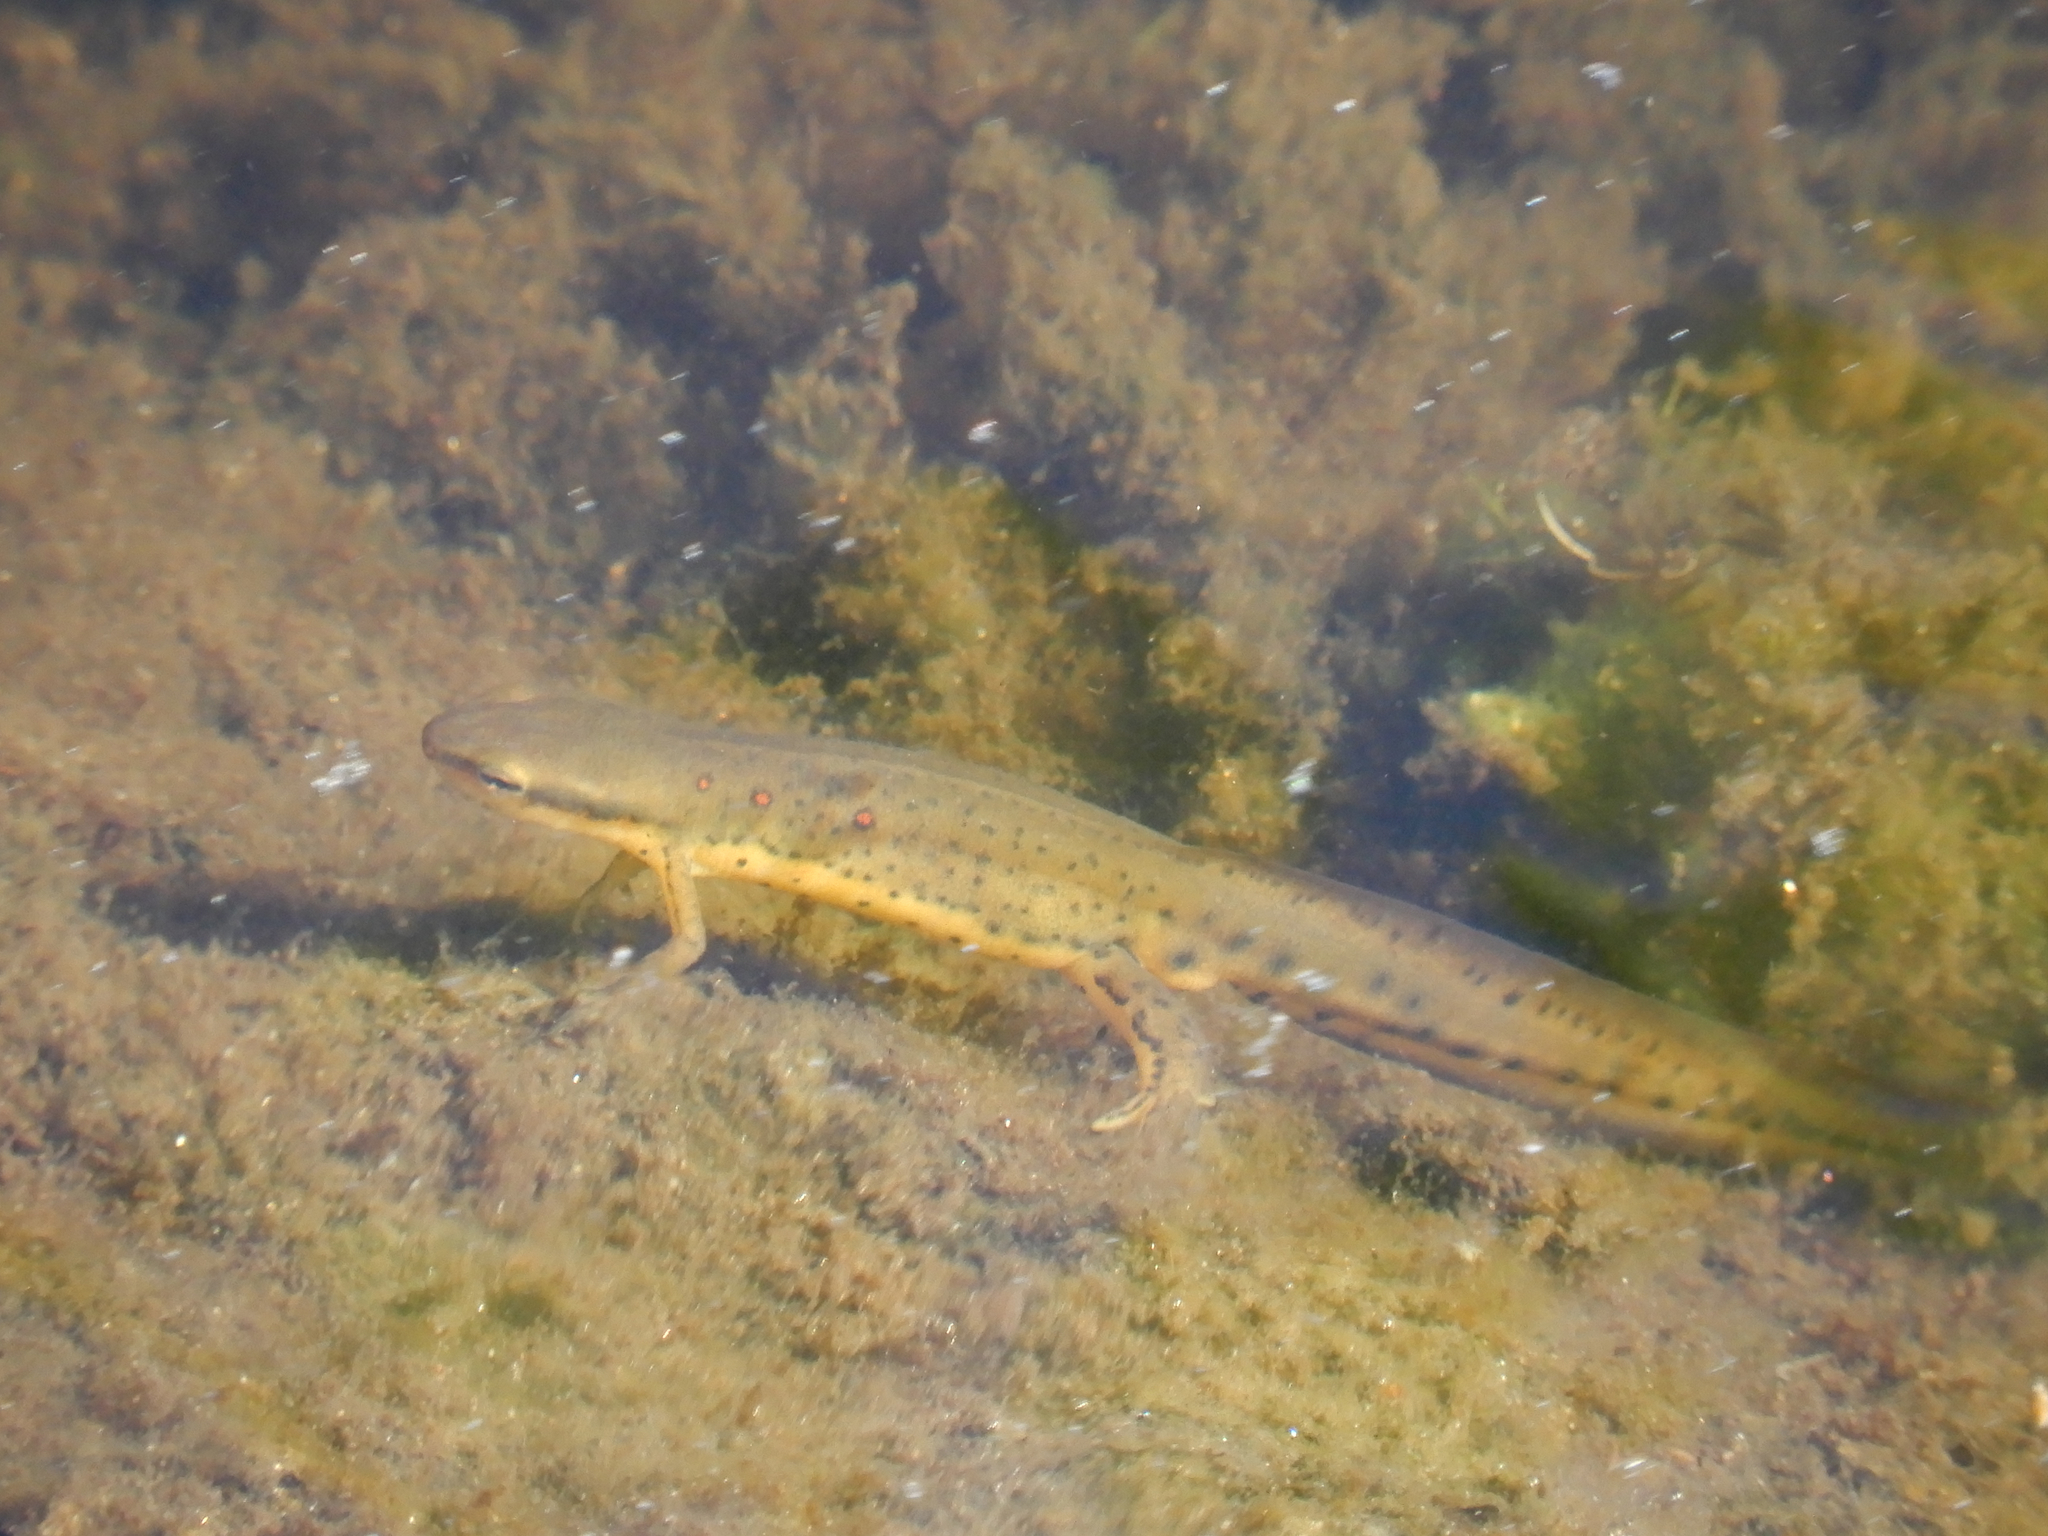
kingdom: Animalia
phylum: Chordata
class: Amphibia
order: Caudata
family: Salamandridae
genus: Notophthalmus
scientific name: Notophthalmus viridescens
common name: Eastern newt
